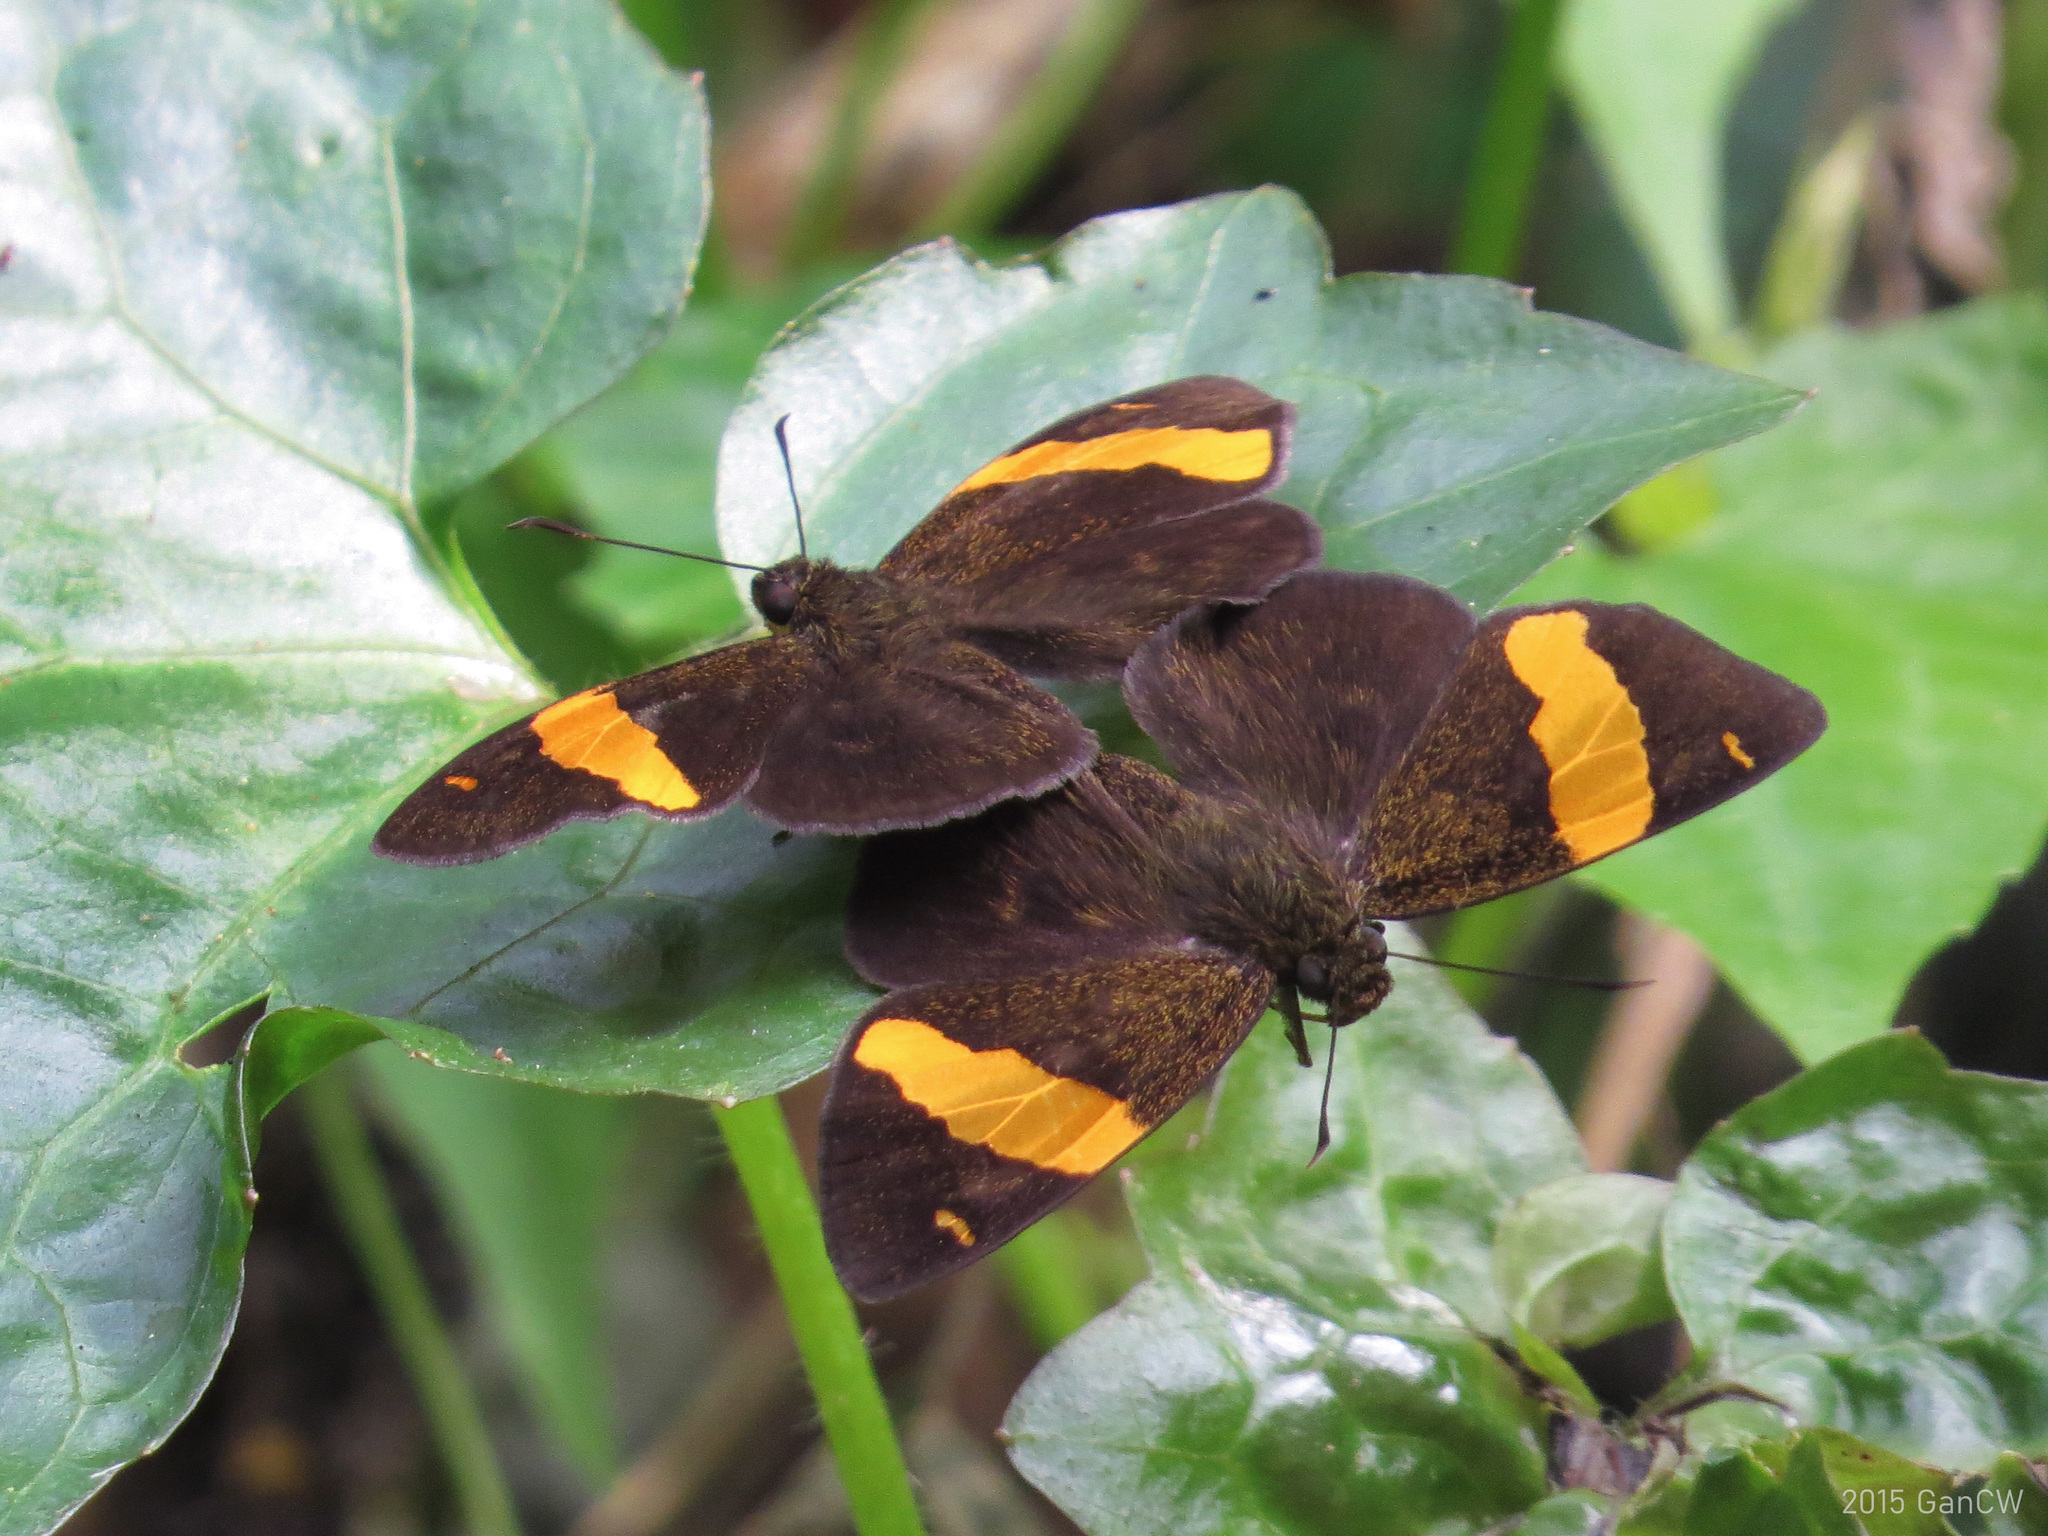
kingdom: Animalia
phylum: Arthropoda
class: Insecta
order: Lepidoptera
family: Hesperiidae
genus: Aurivittia
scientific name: Aurivittia
